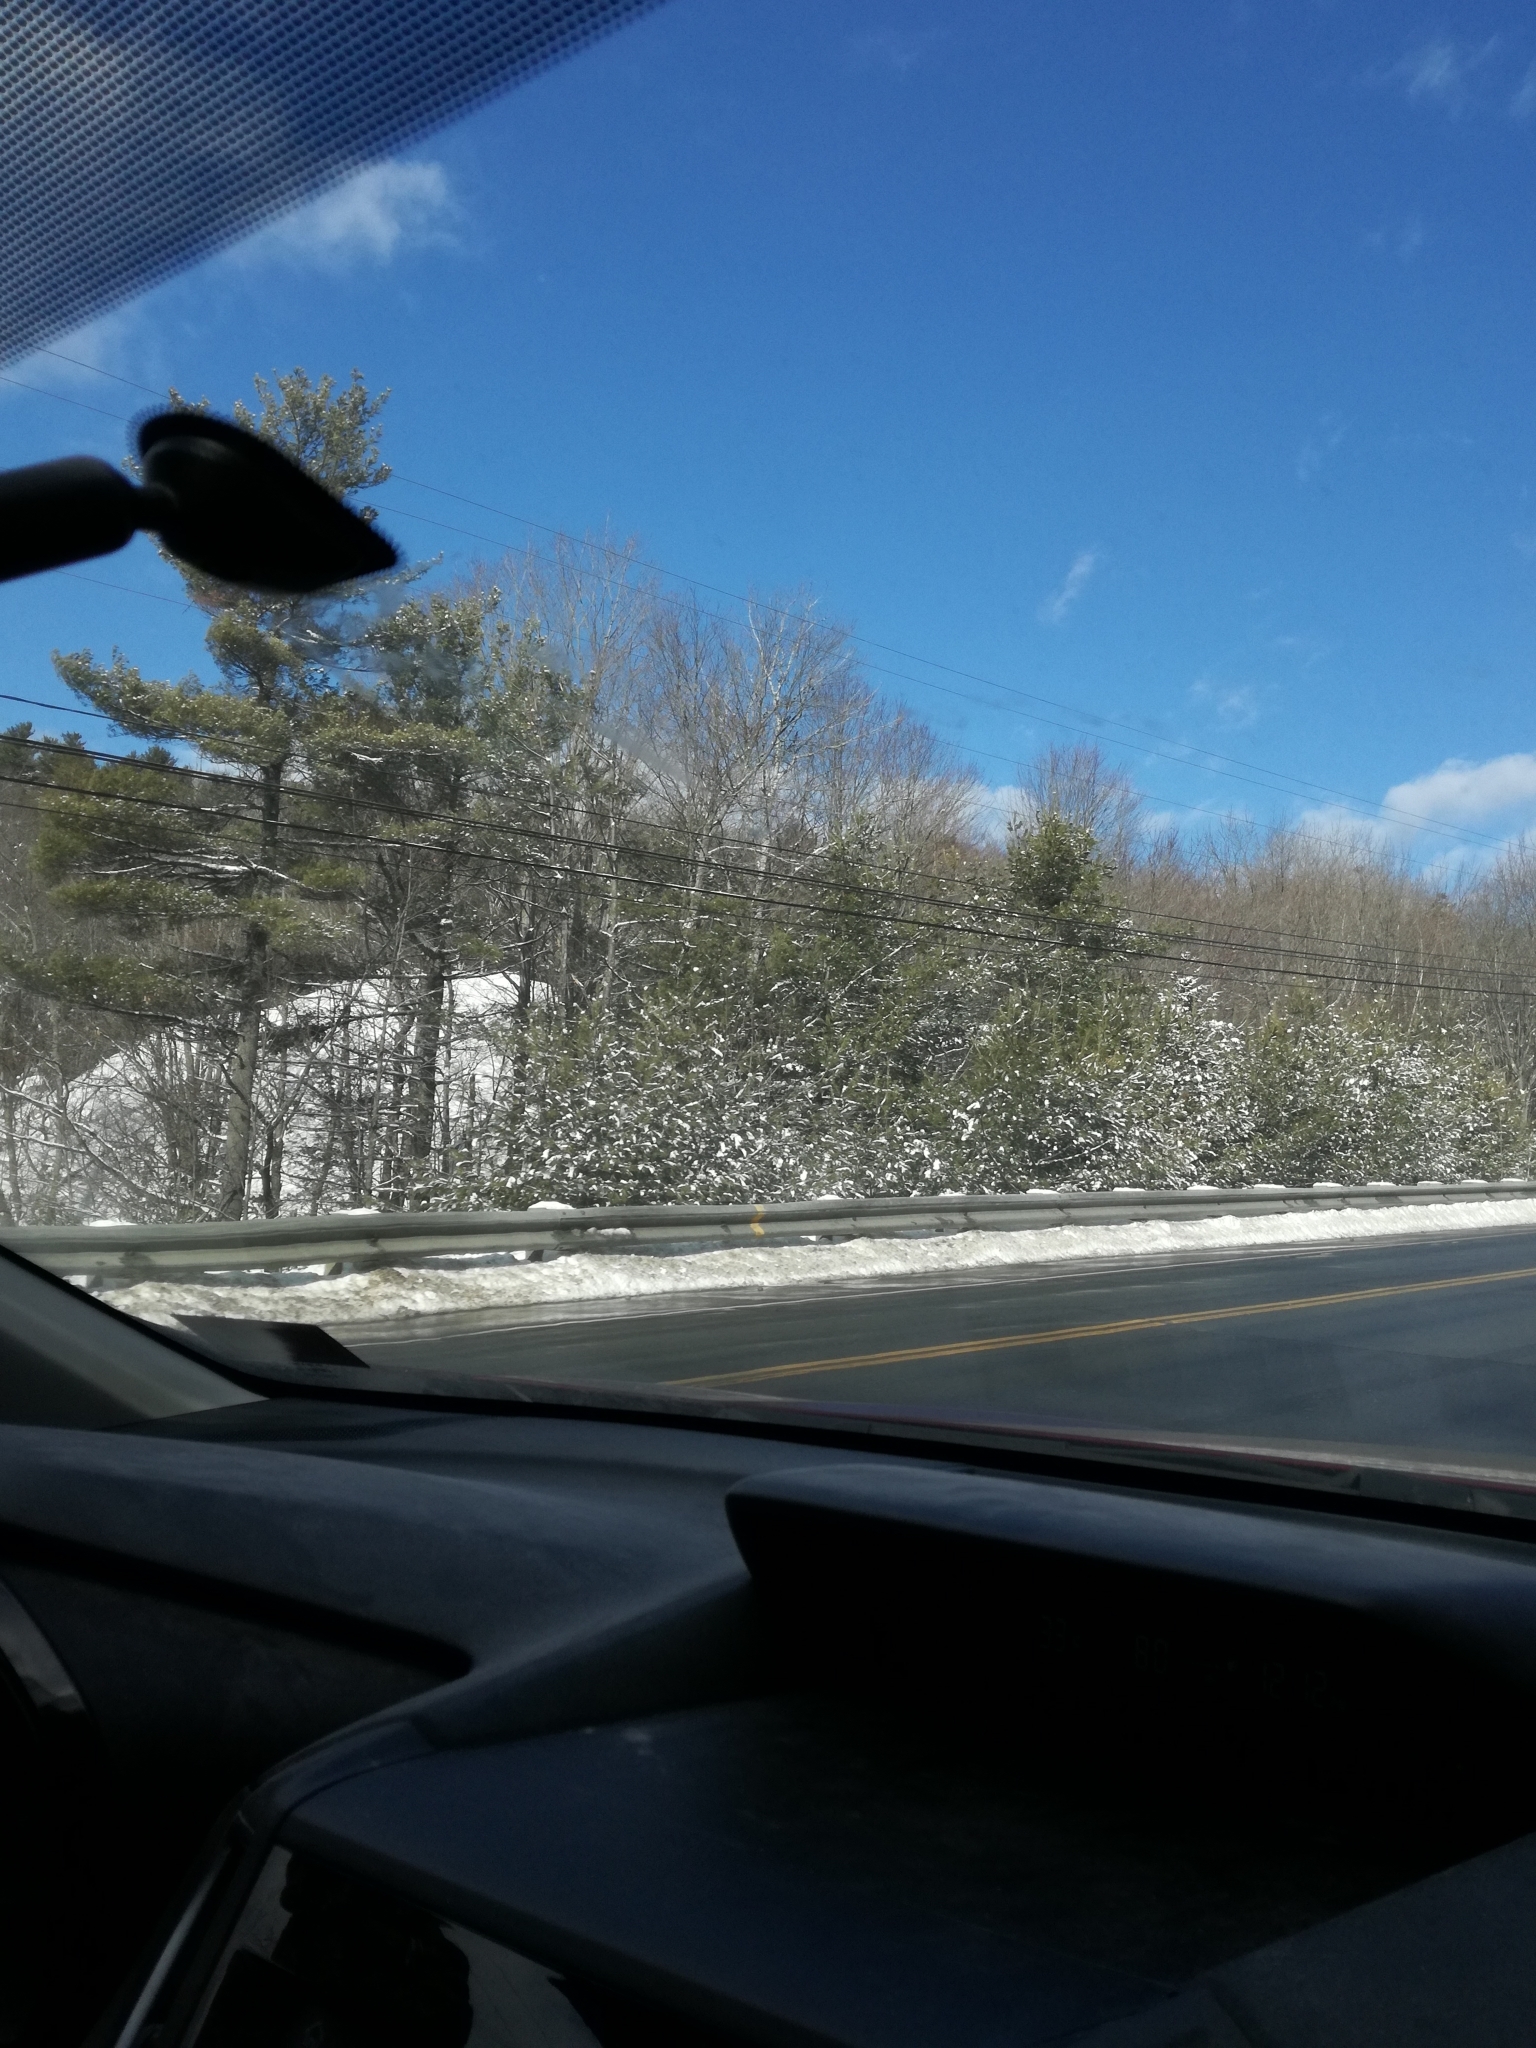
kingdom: Plantae
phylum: Tracheophyta
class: Pinopsida
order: Pinales
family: Pinaceae
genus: Pinus
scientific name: Pinus strobus
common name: Weymouth pine
